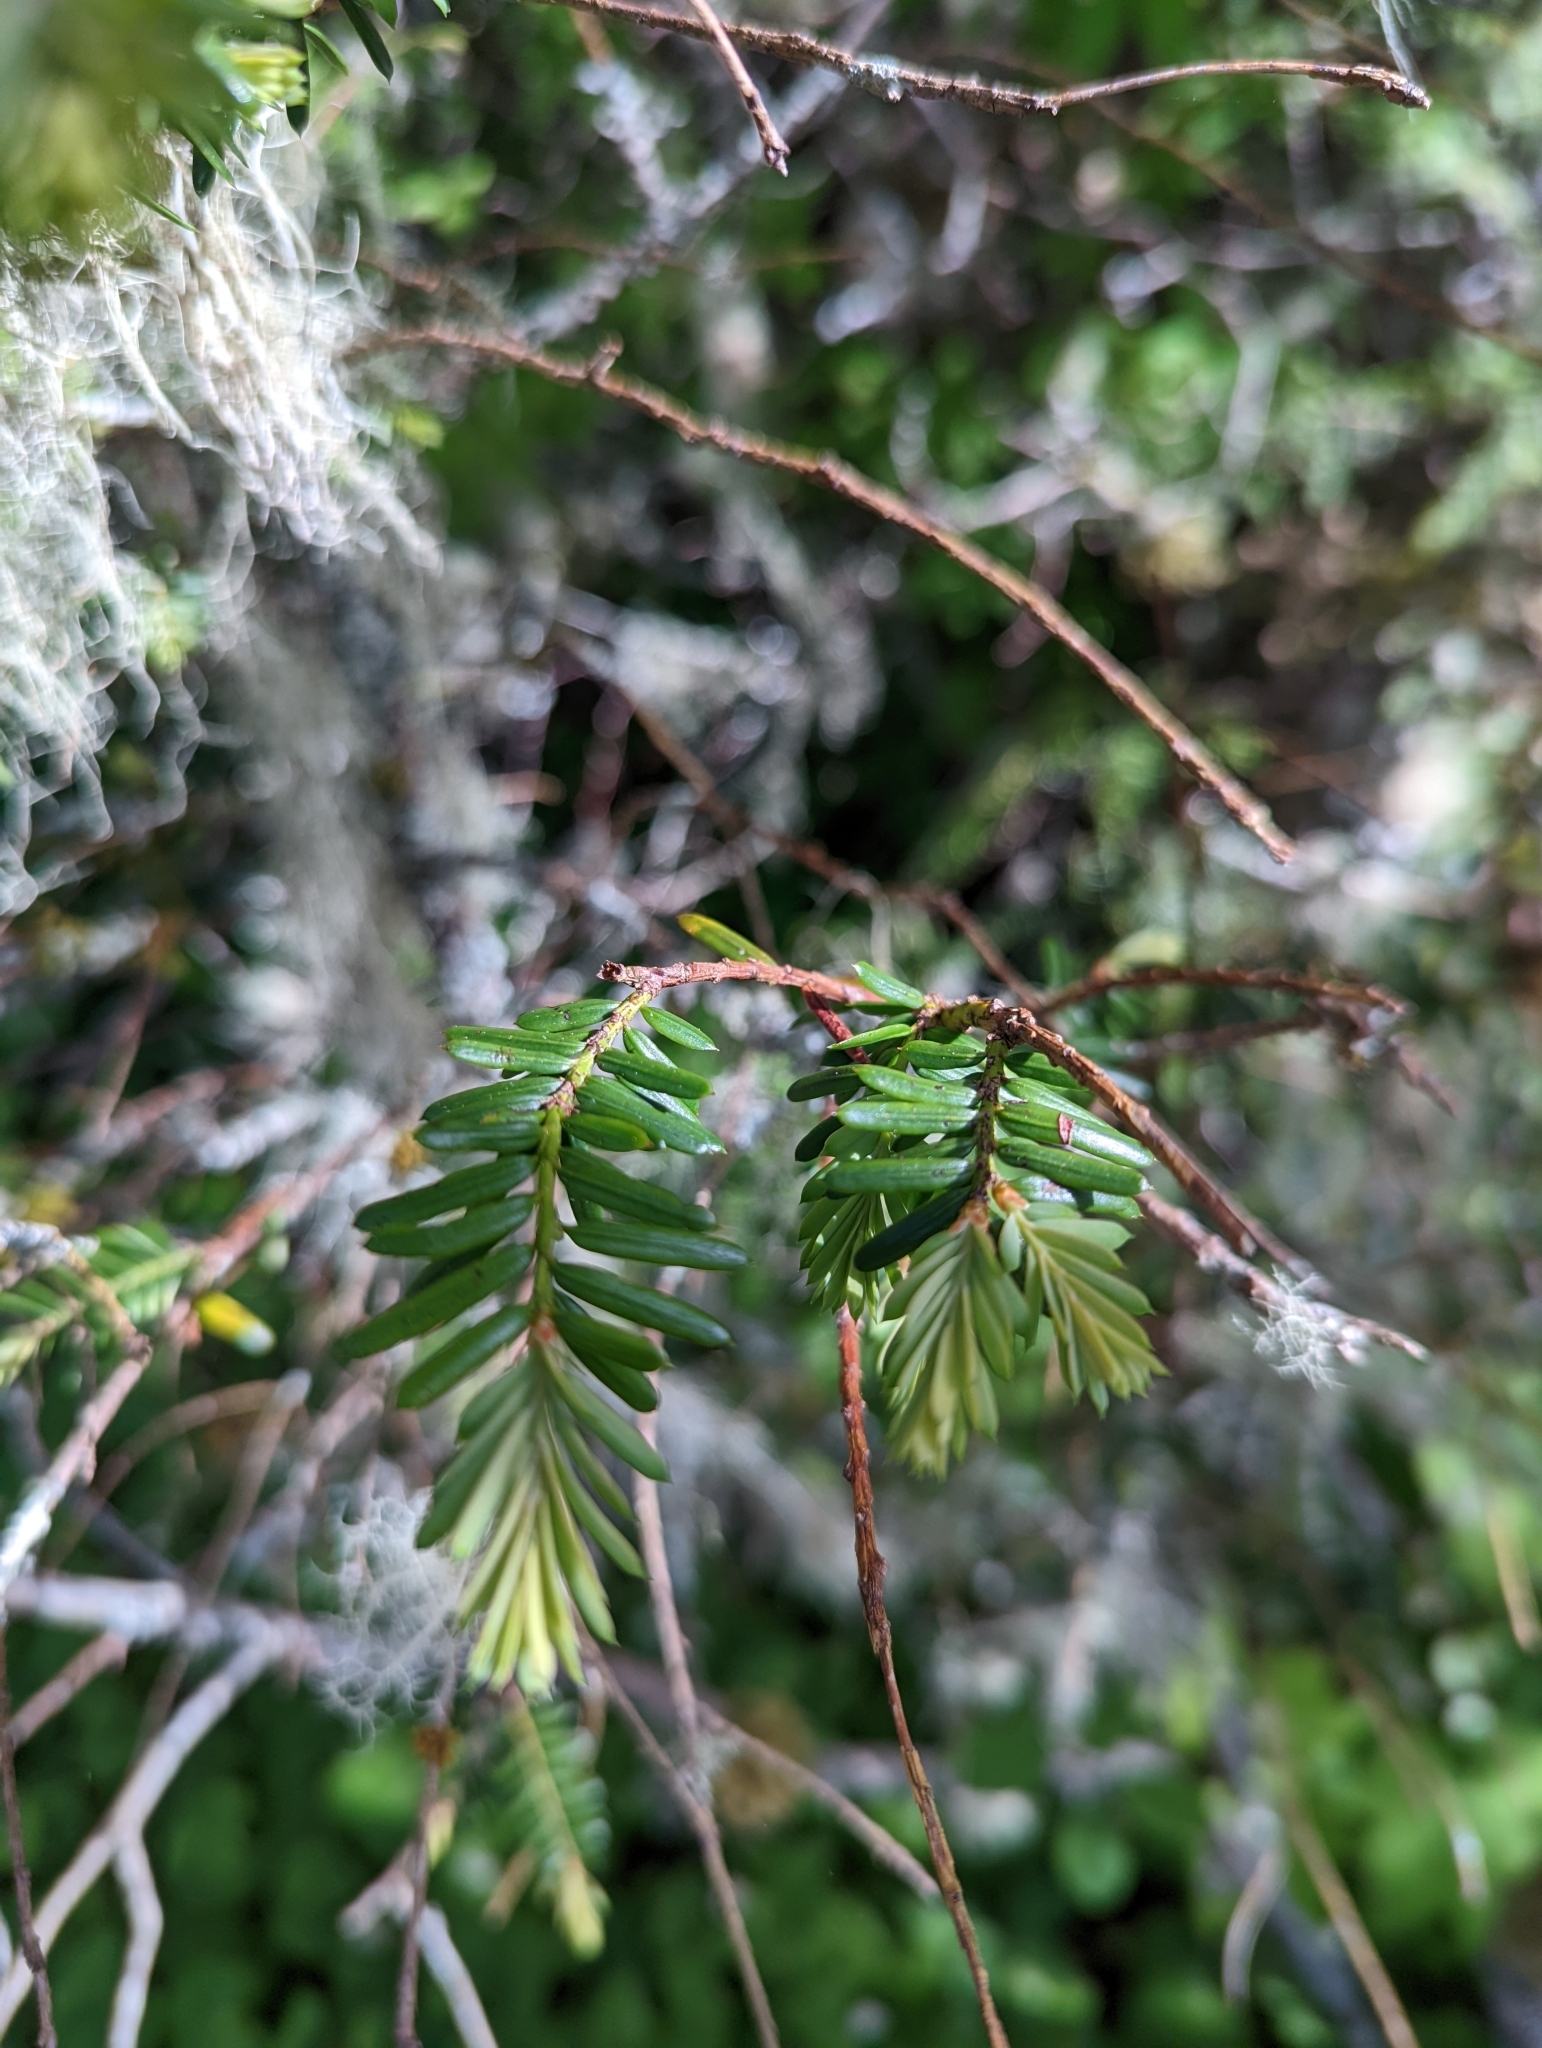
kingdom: Plantae
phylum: Tracheophyta
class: Pinopsida
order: Pinales
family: Taxaceae
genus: Taxus
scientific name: Taxus brevifolia
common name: Pacific yew
